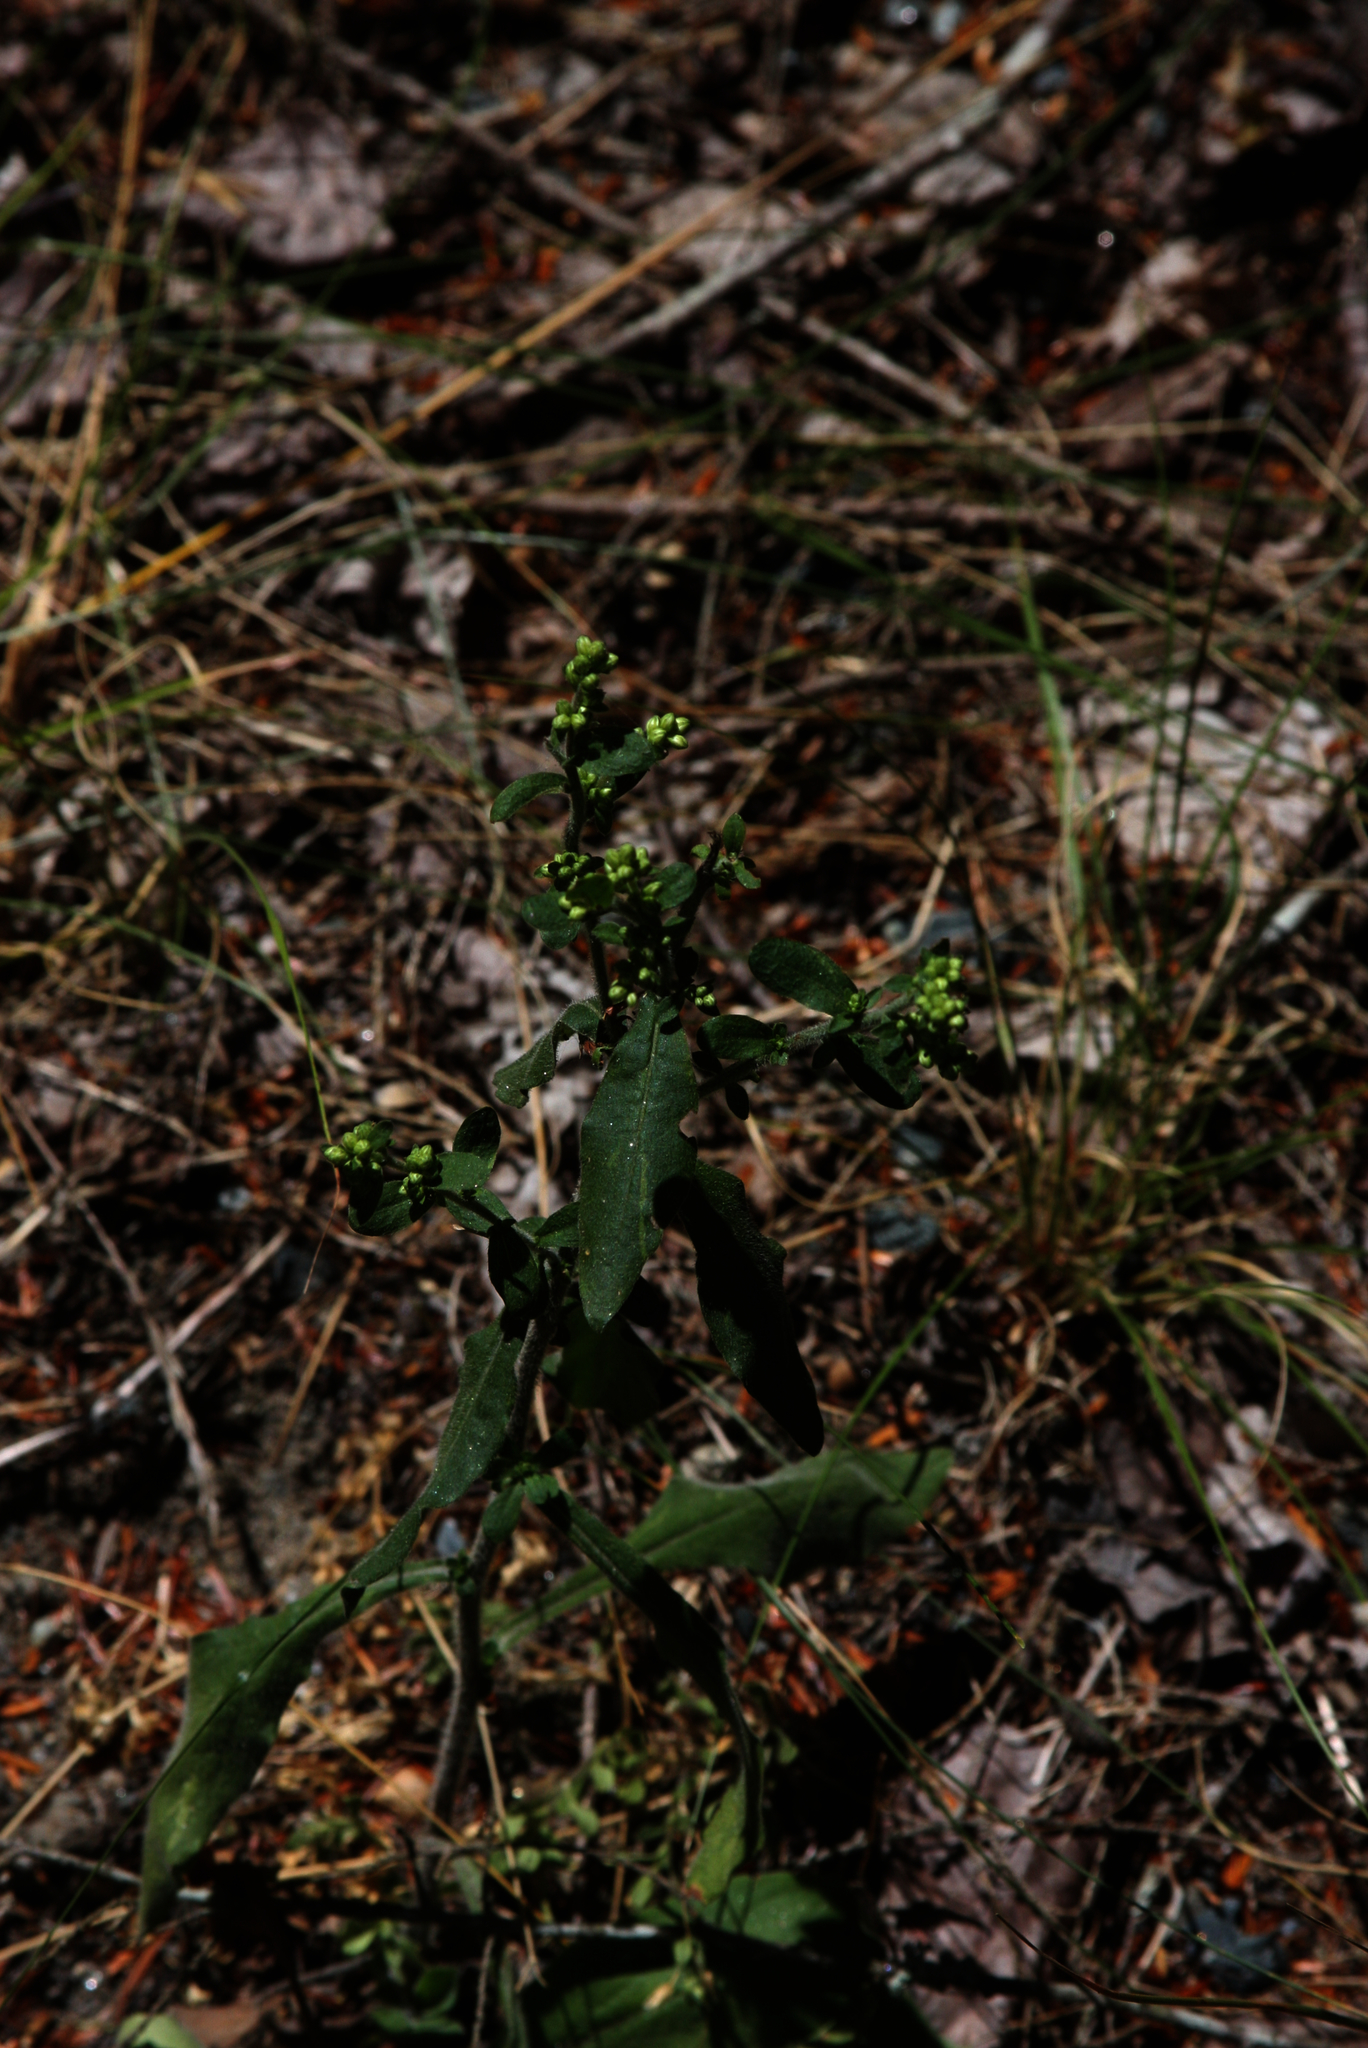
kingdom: Plantae
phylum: Tracheophyta
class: Magnoliopsida
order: Asterales
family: Asteraceae
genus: Solidago
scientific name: Solidago bicolor
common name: Silverrod
